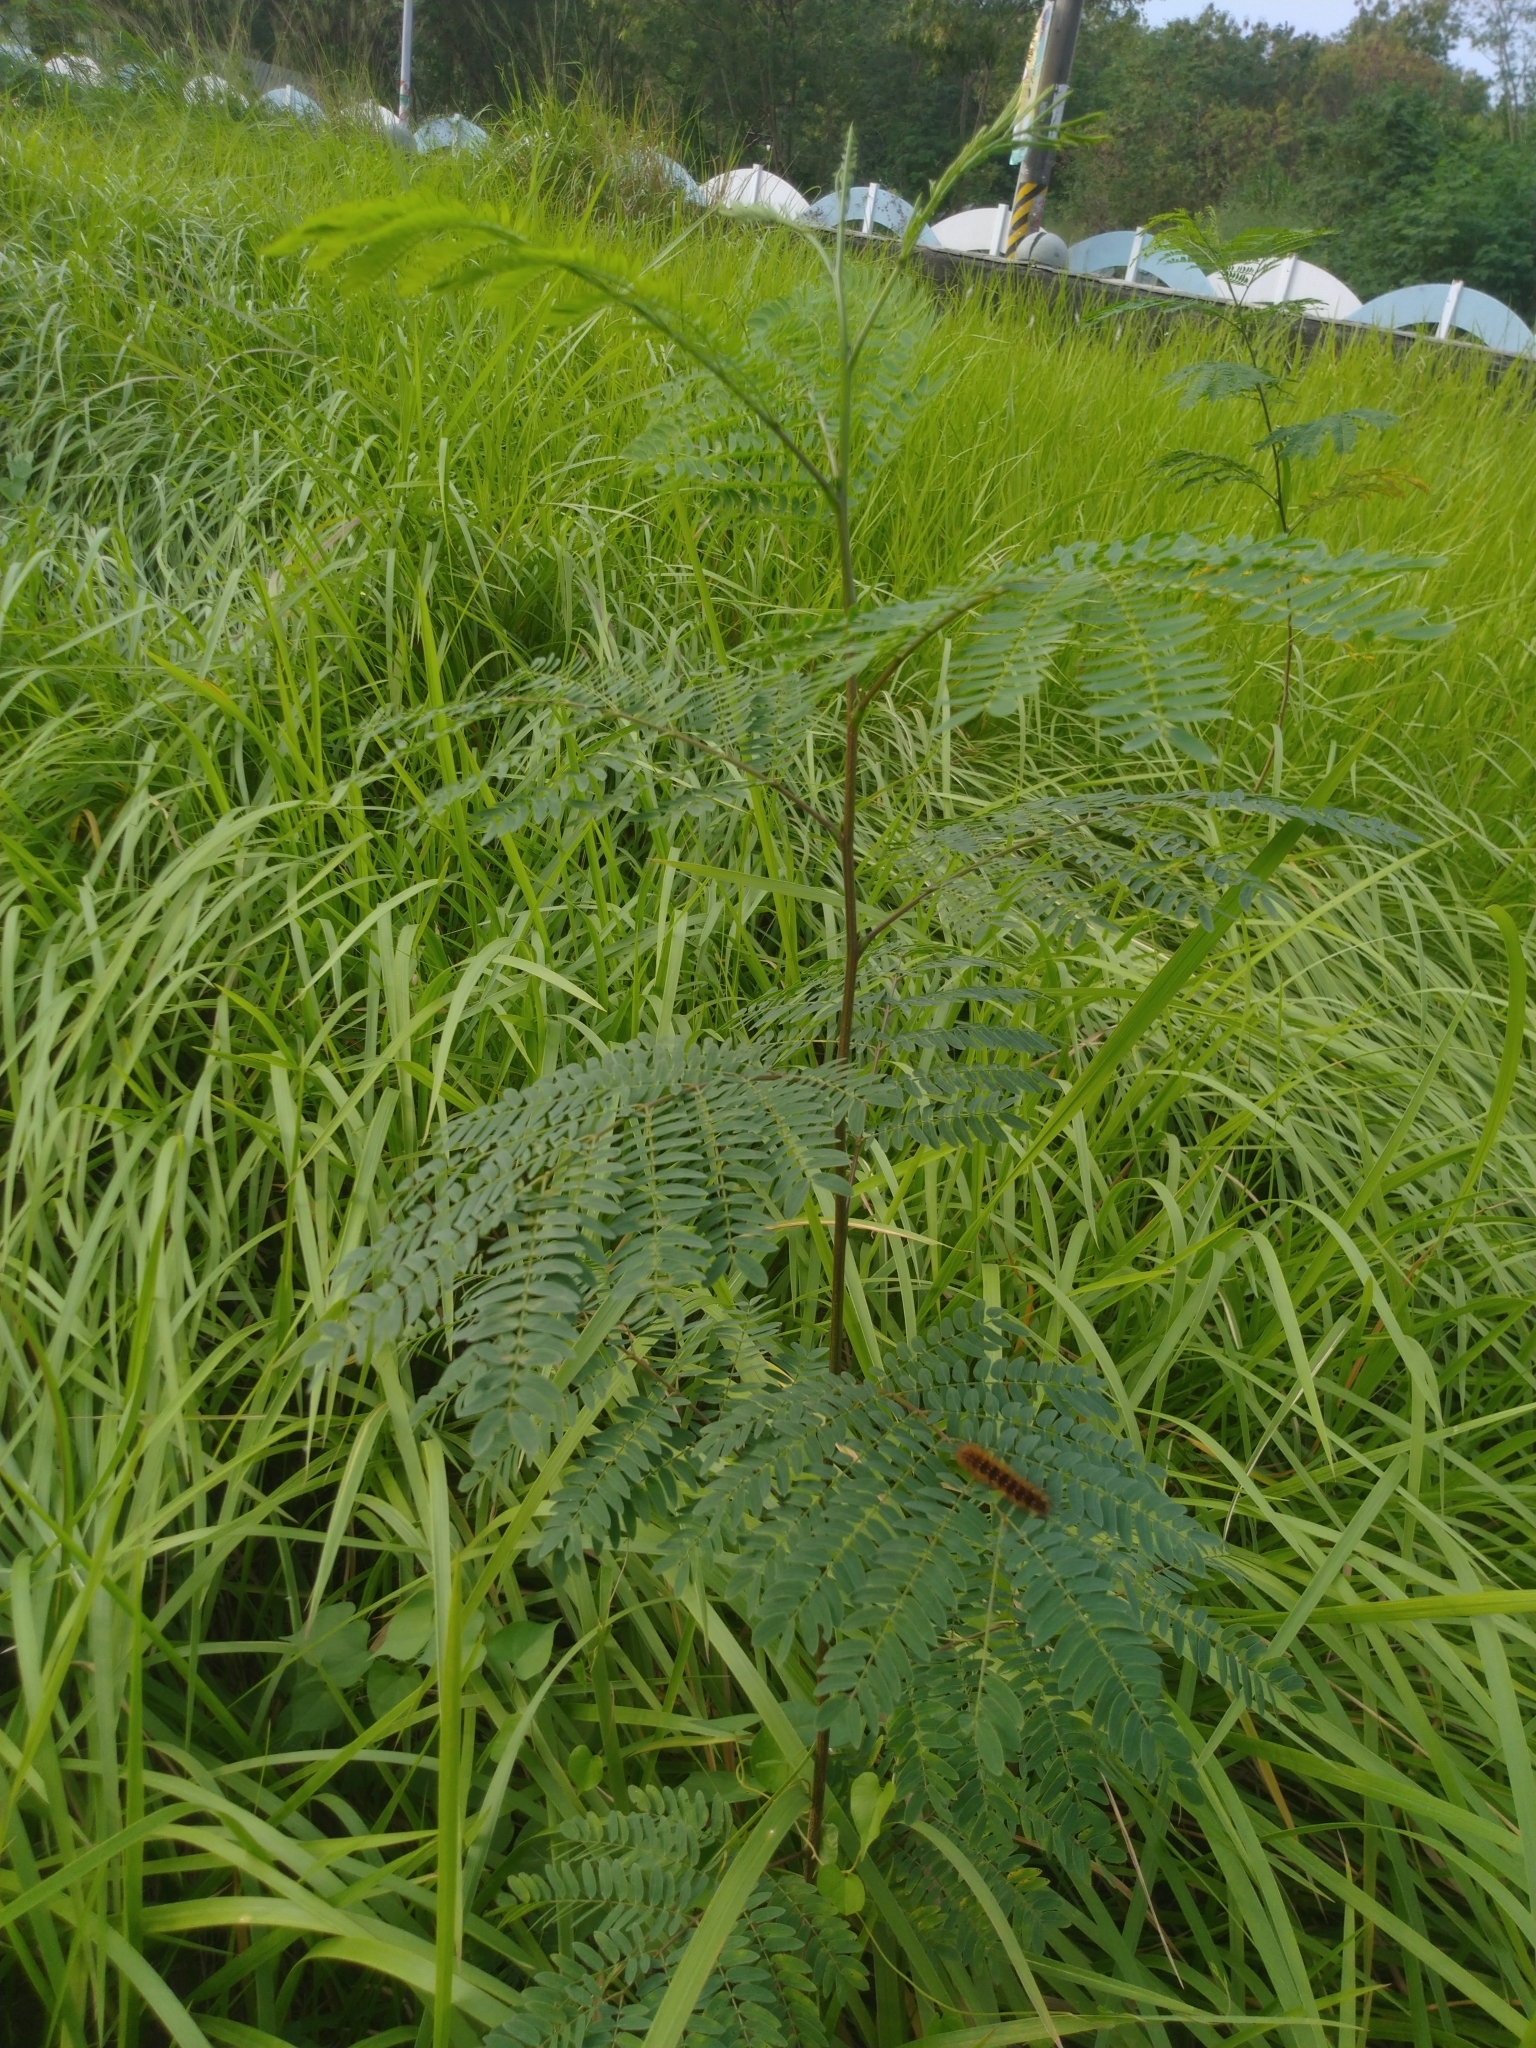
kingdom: Plantae
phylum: Tracheophyta
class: Magnoliopsida
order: Fabales
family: Fabaceae
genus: Leucaena
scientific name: Leucaena leucocephala
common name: White leadtree
